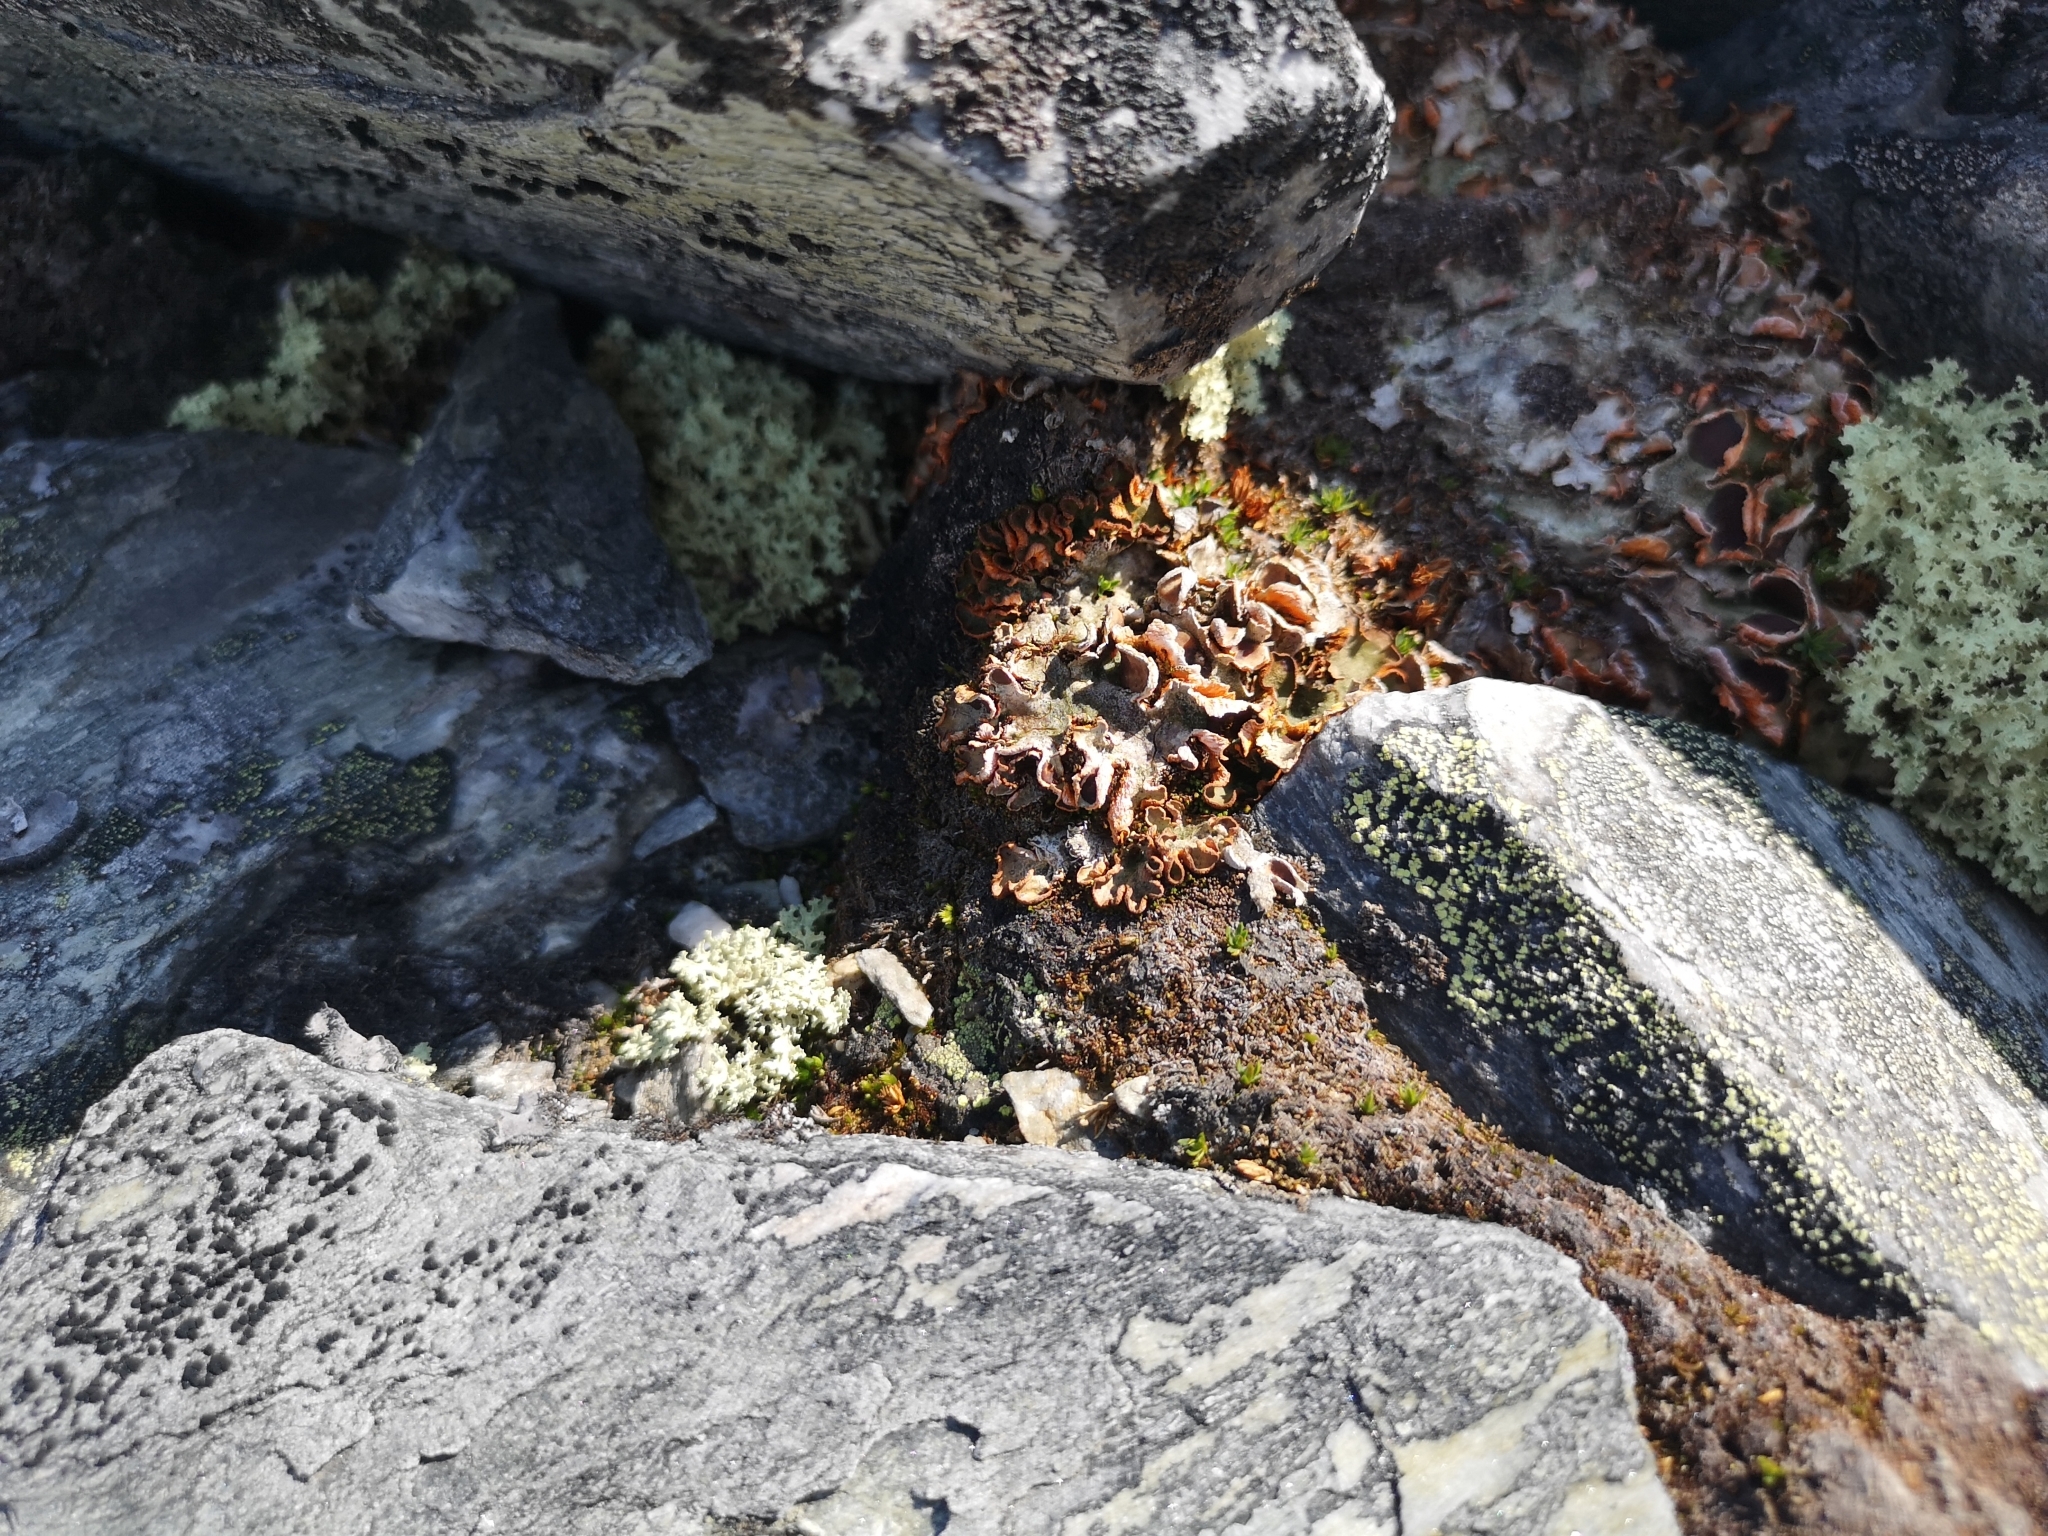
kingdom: Fungi
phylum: Ascomycota
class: Lecanoromycetes
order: Peltigerales
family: Peltigeraceae
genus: Solorina
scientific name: Solorina crocea
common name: Mountain saffron
